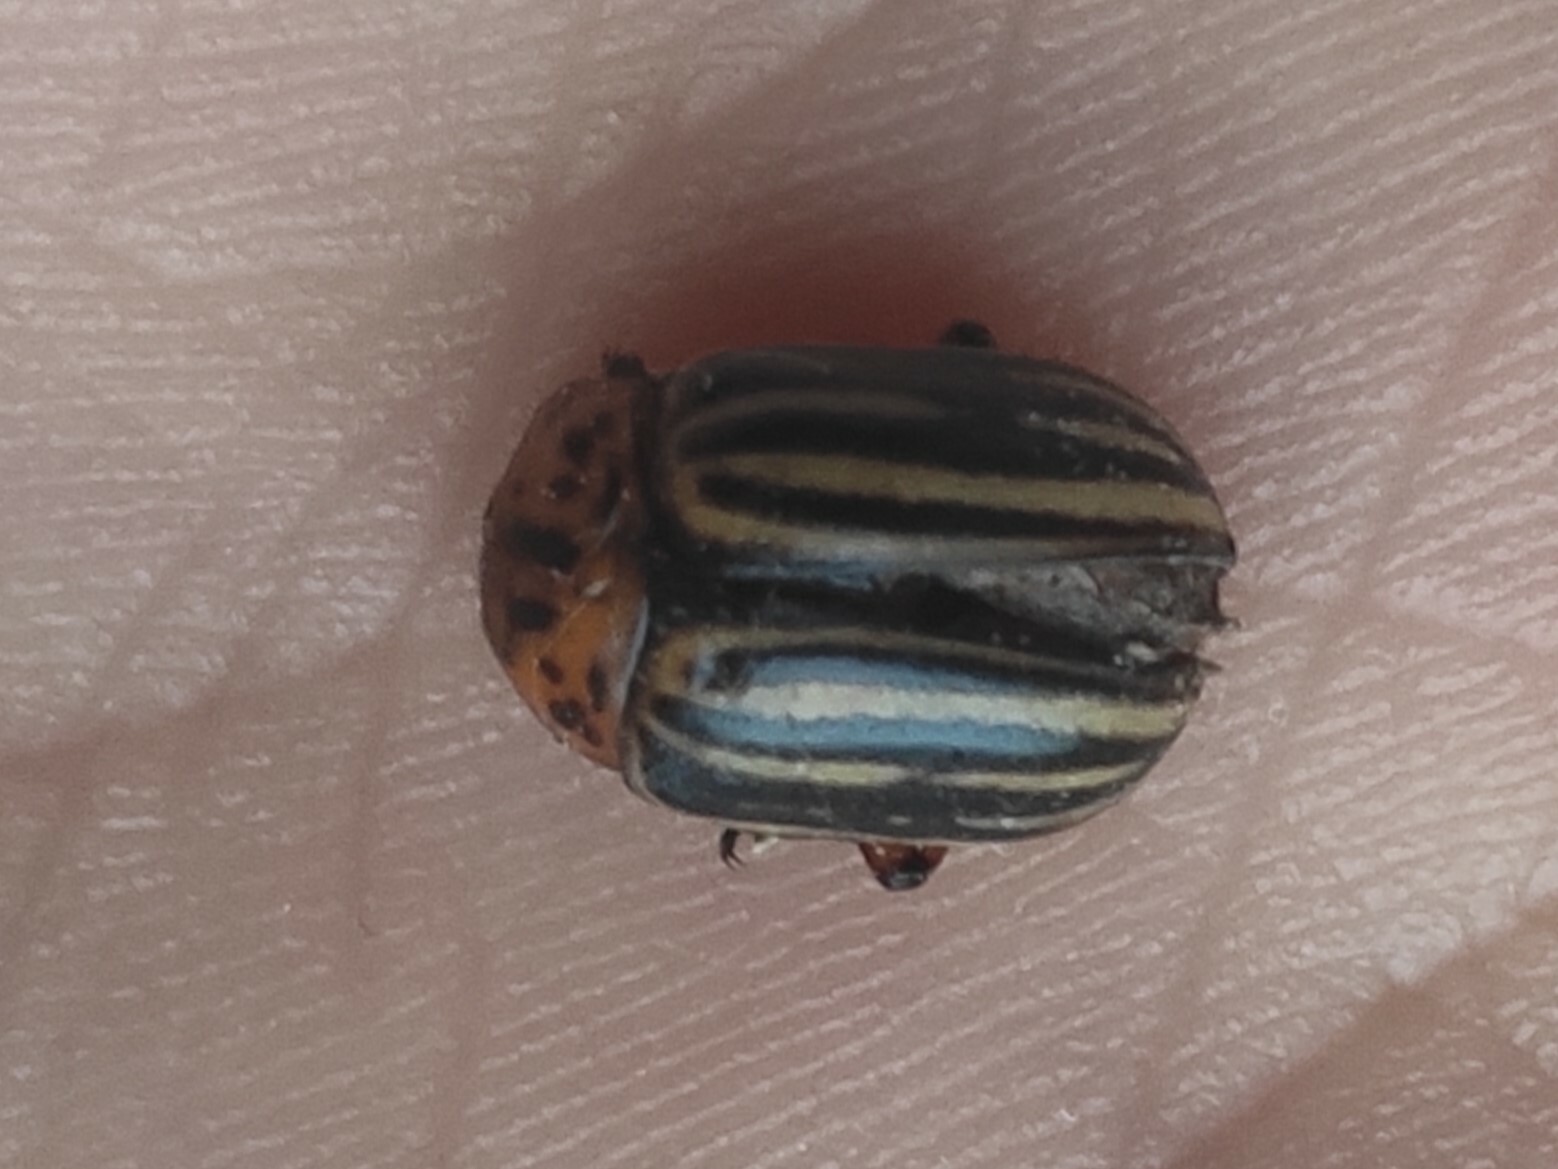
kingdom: Animalia
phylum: Arthropoda
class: Insecta
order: Coleoptera
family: Chrysomelidae
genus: Leptinotarsa
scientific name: Leptinotarsa decemlineata
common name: Colorado potato beetle
